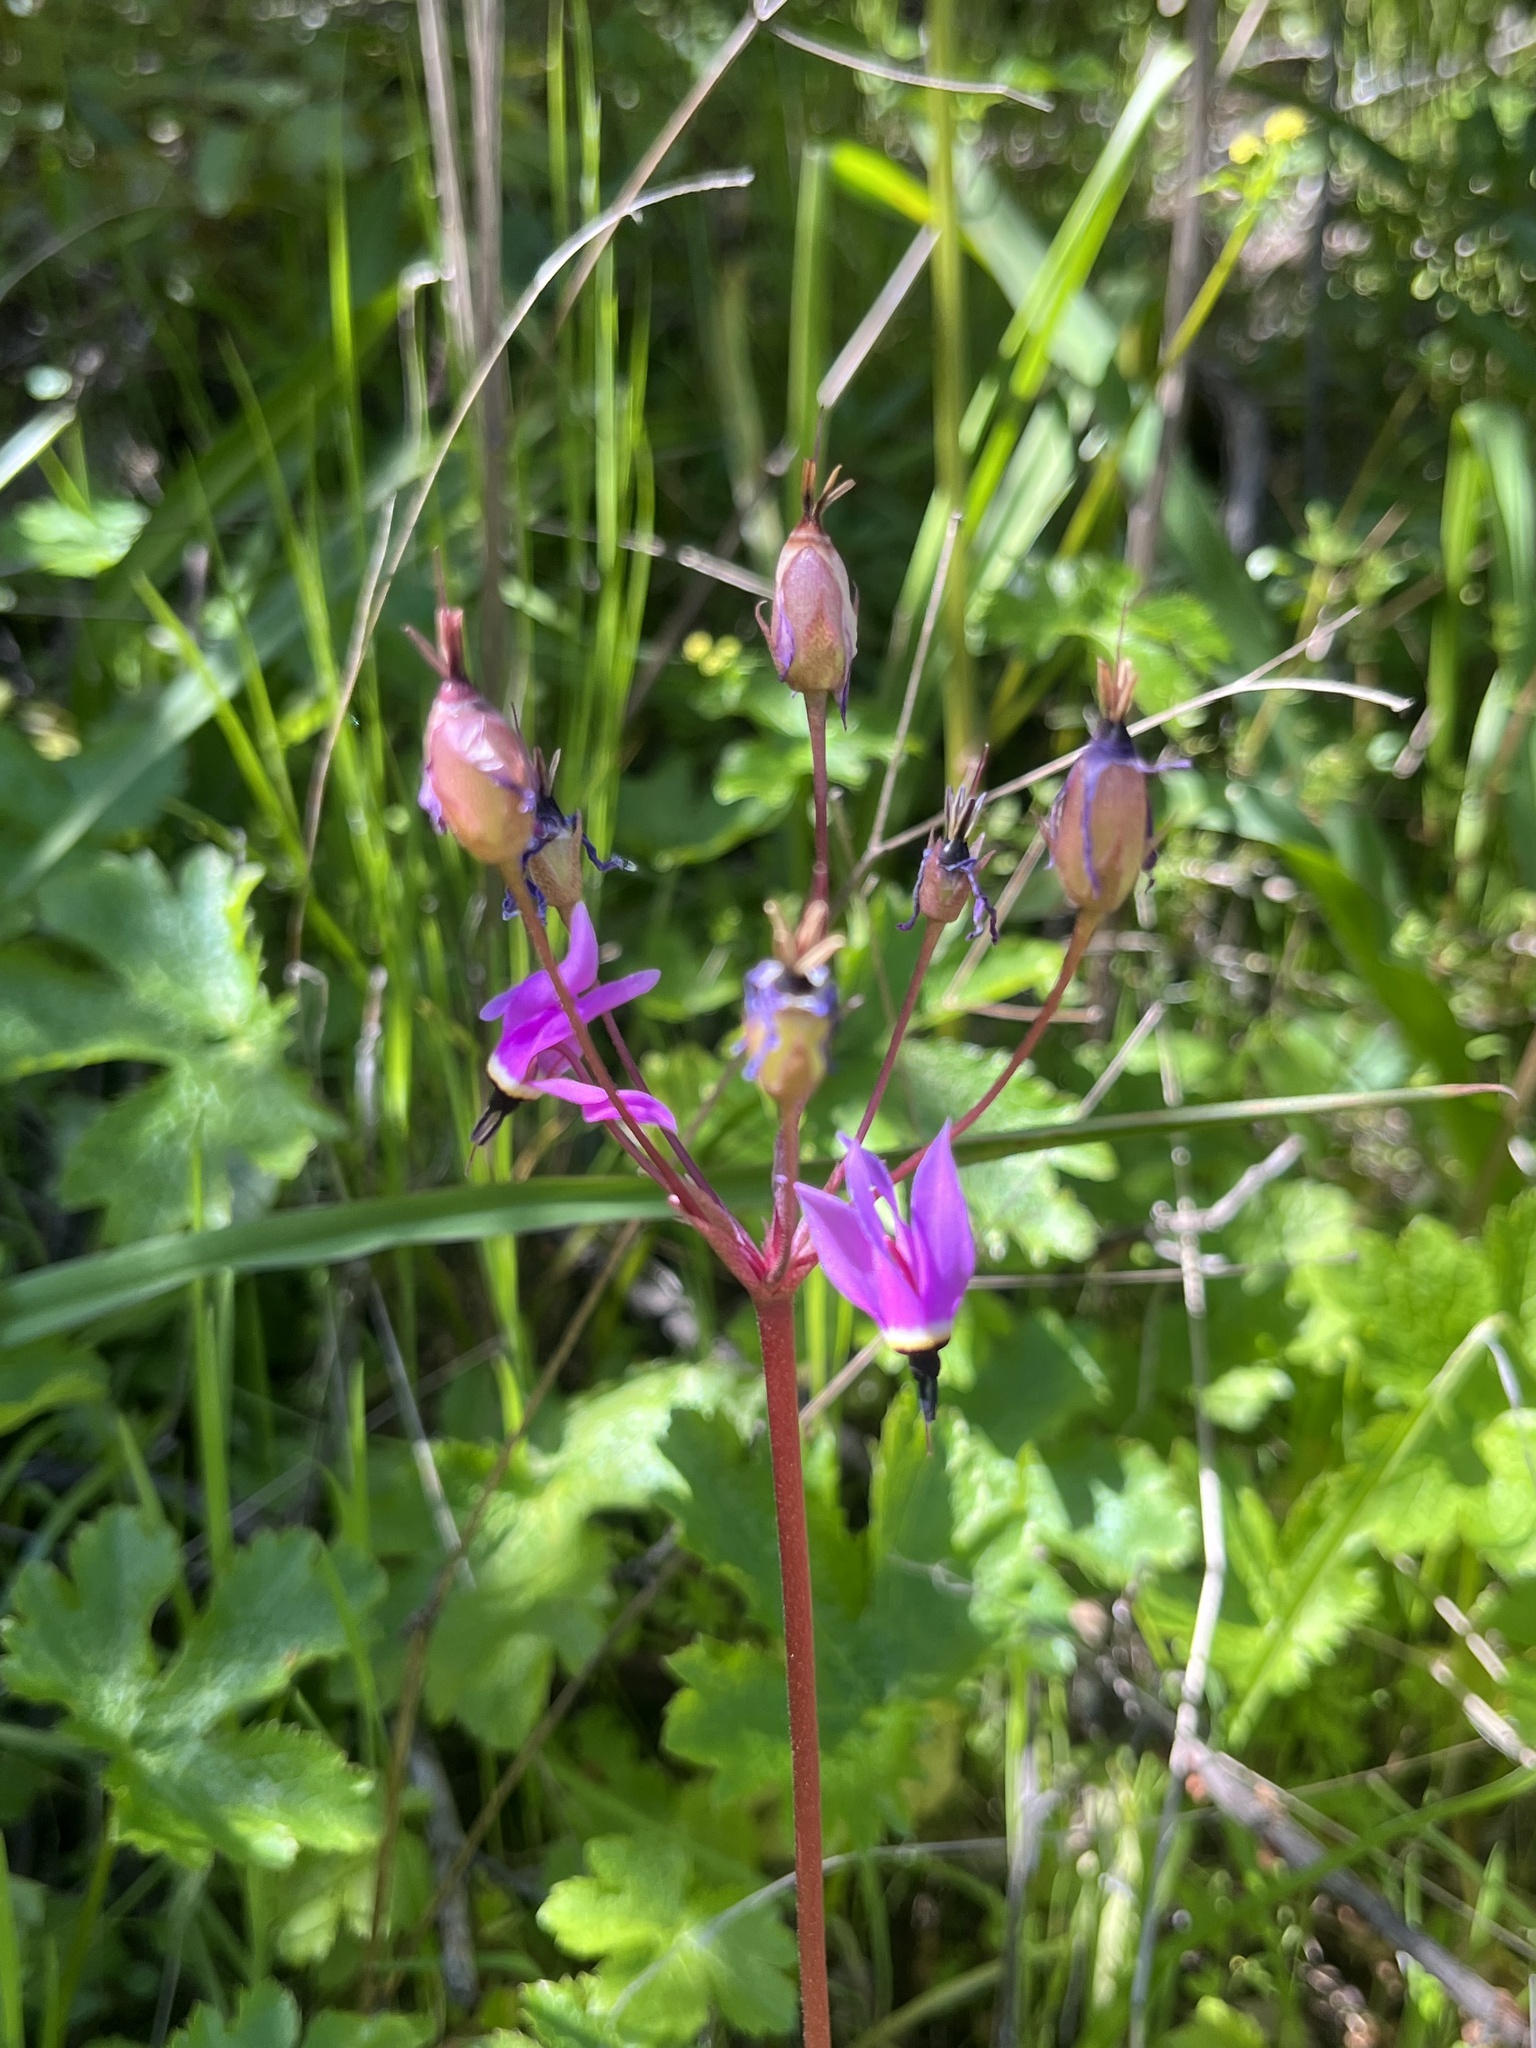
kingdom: Plantae
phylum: Tracheophyta
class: Magnoliopsida
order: Ericales
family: Primulaceae
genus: Dodecatheon
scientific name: Dodecatheon hendersonii
